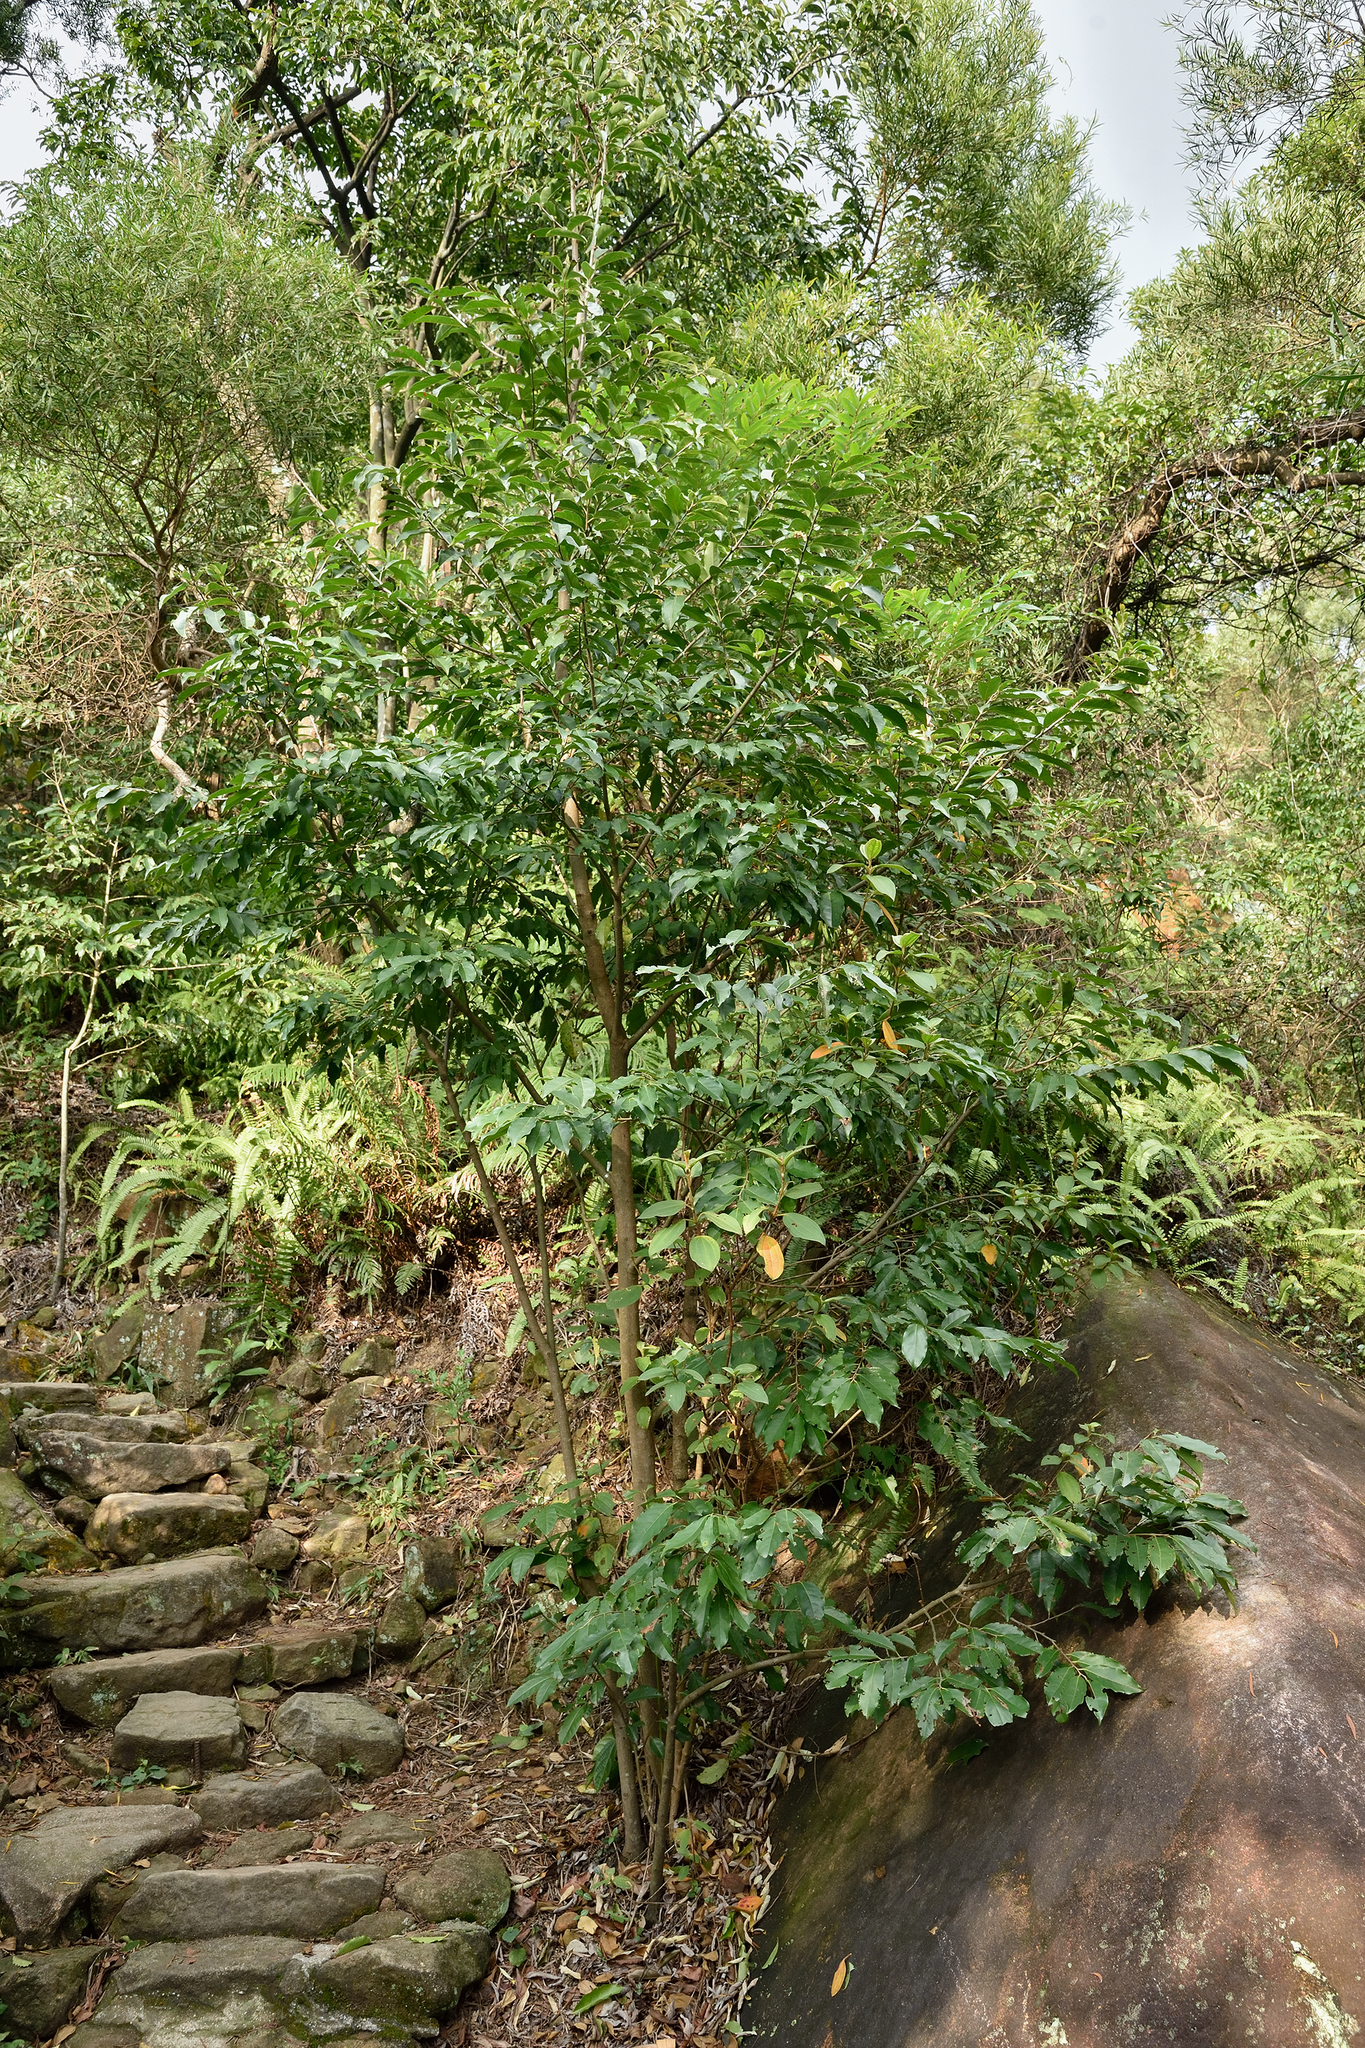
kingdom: Plantae
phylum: Tracheophyta
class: Magnoliopsida
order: Ericales
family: Ebenaceae
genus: Diospyros
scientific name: Diospyros morrisiana
